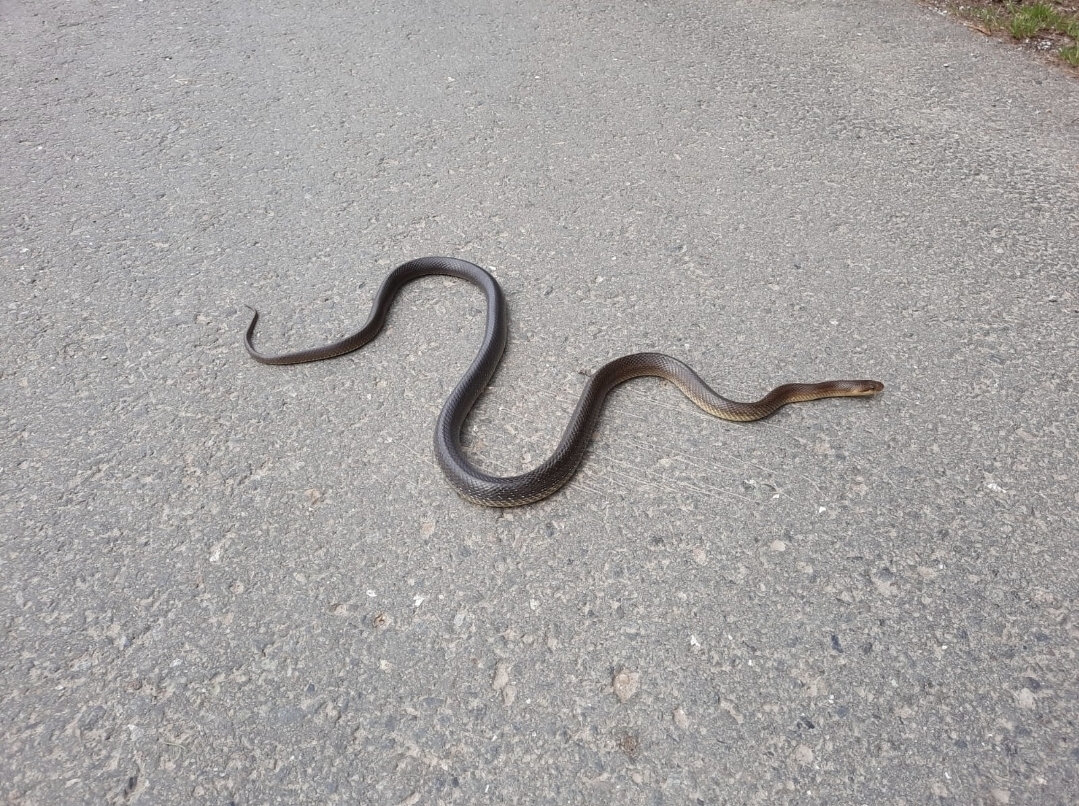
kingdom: Animalia
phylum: Chordata
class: Squamata
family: Colubridae
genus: Zamenis
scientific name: Zamenis longissimus
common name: Aesculapean snake
